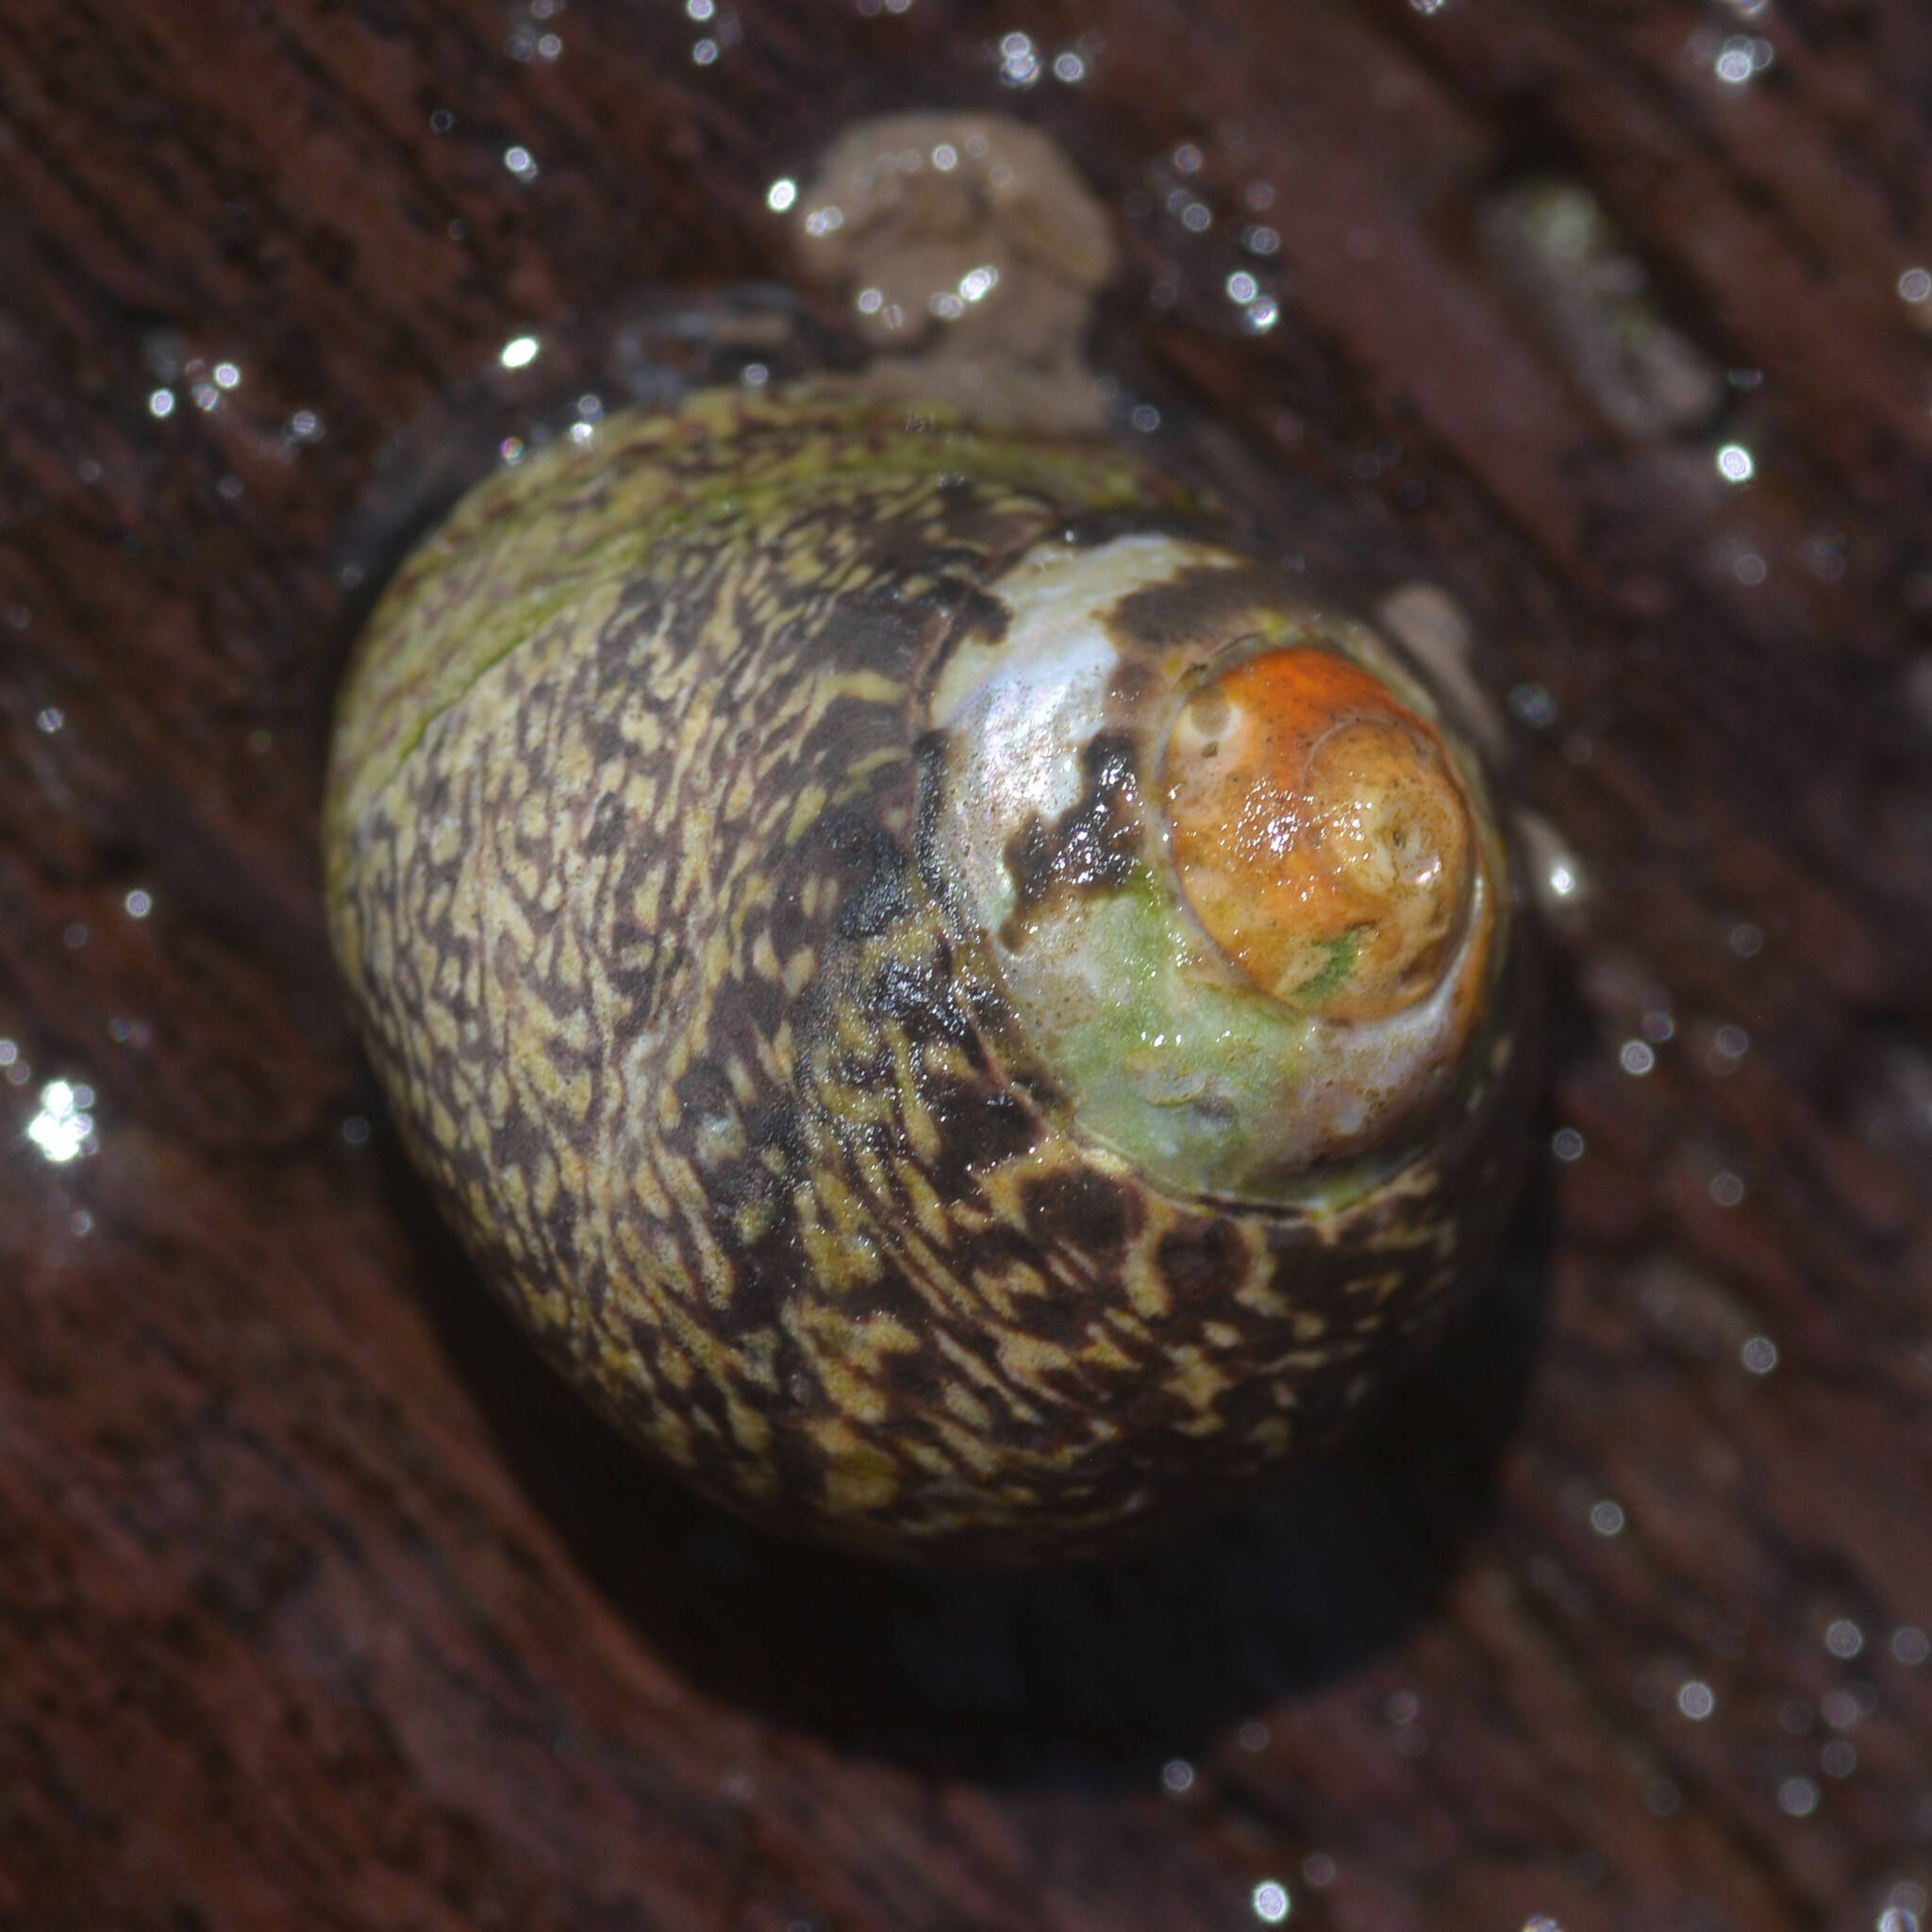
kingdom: Animalia
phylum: Mollusca
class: Gastropoda
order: Trochida
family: Trochidae
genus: Phorcus
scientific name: Phorcus lineatus
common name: Toothed top shell
